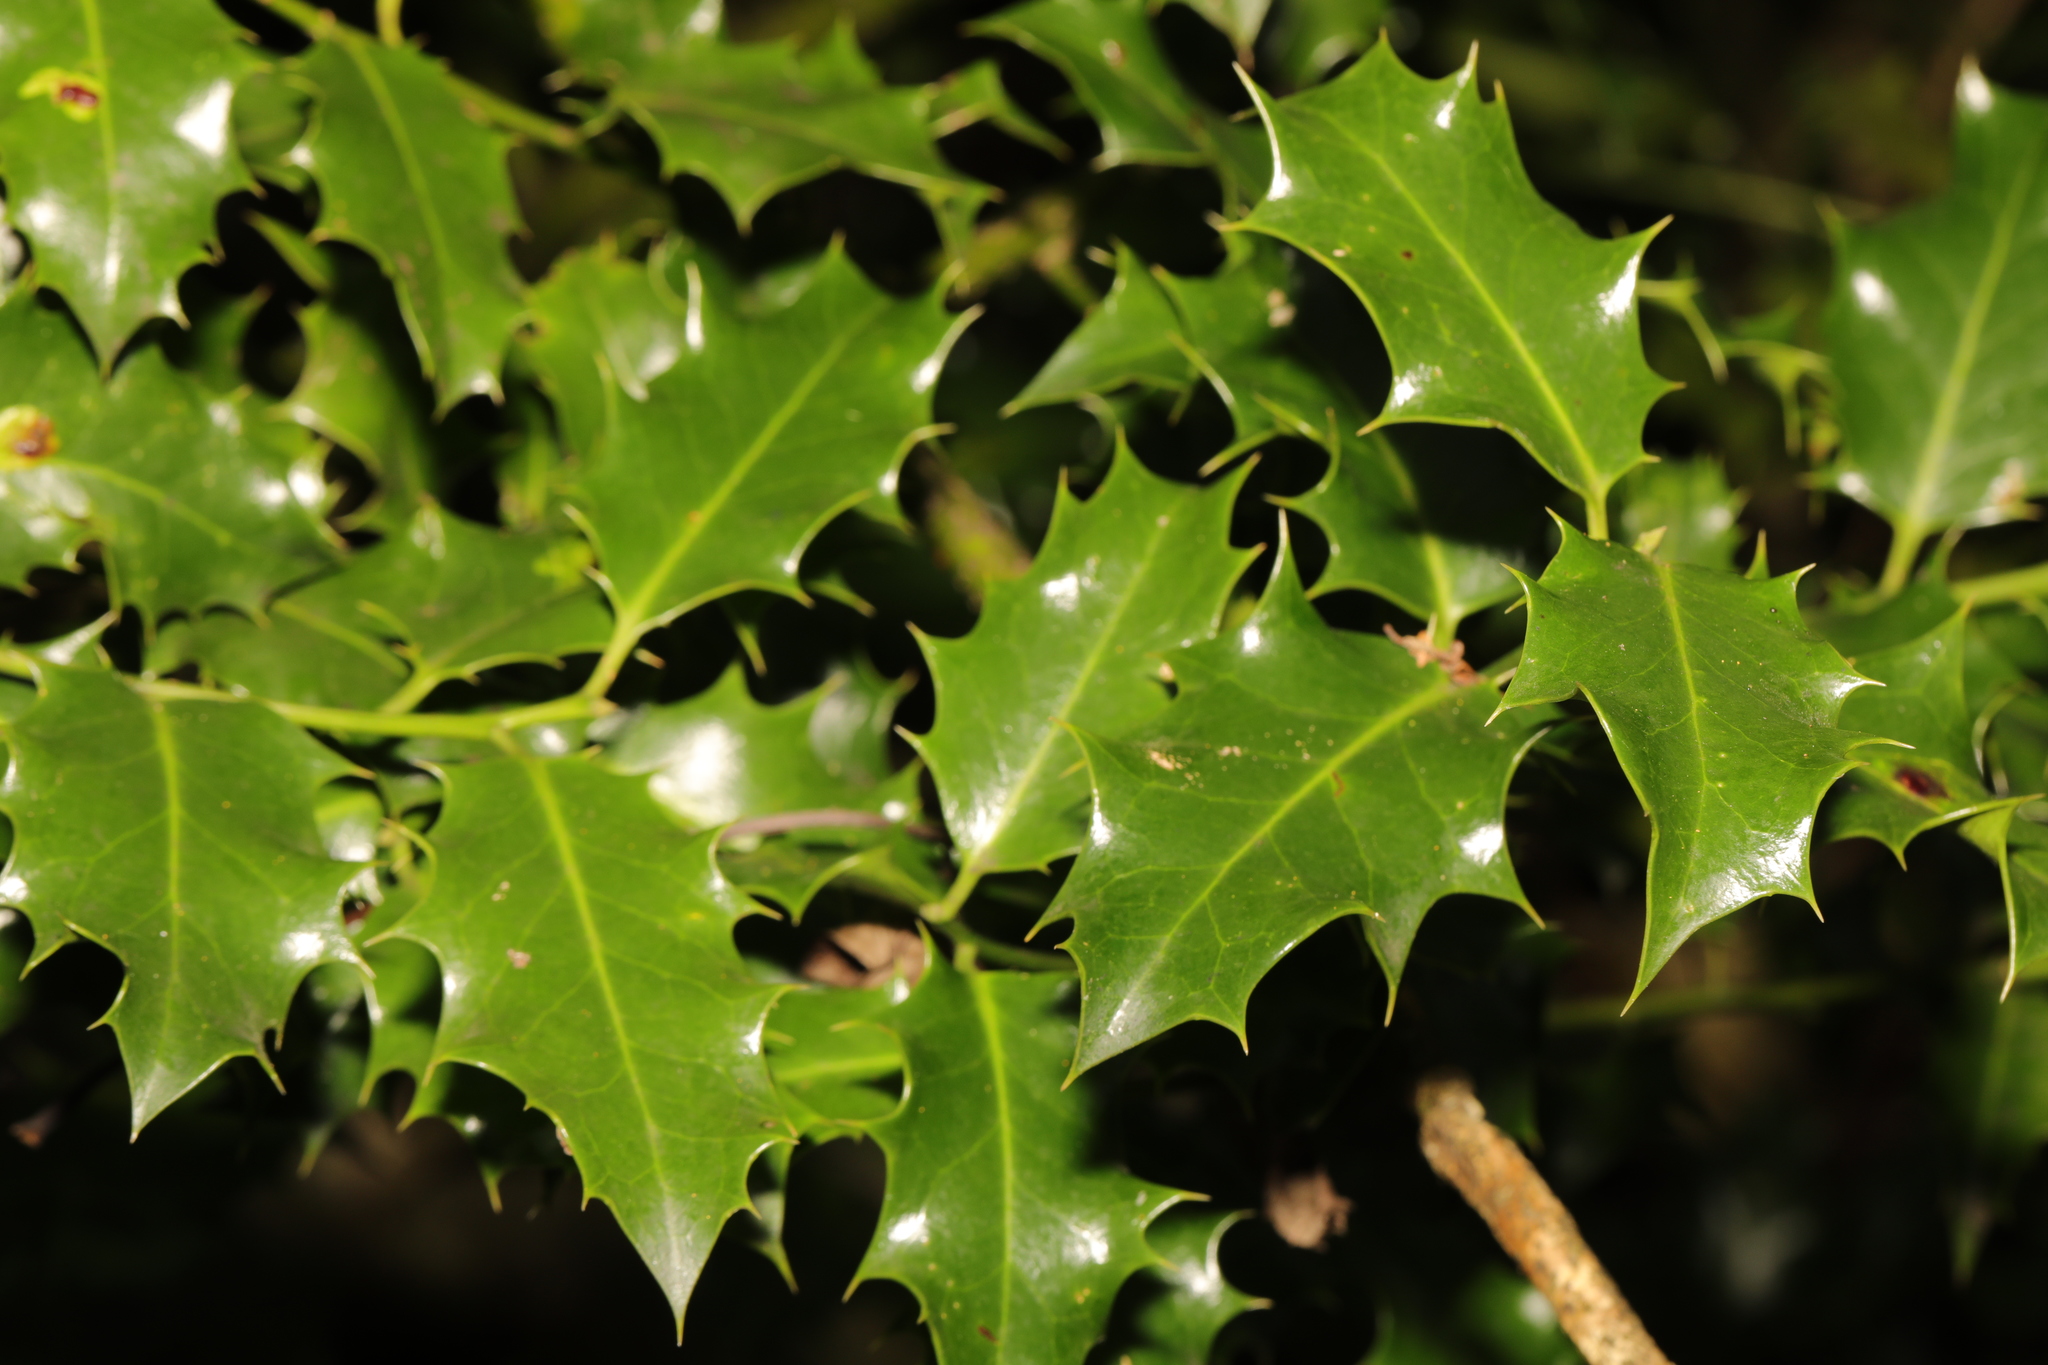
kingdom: Plantae
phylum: Tracheophyta
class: Magnoliopsida
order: Aquifoliales
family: Aquifoliaceae
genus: Ilex
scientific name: Ilex aquifolium
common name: English holly
